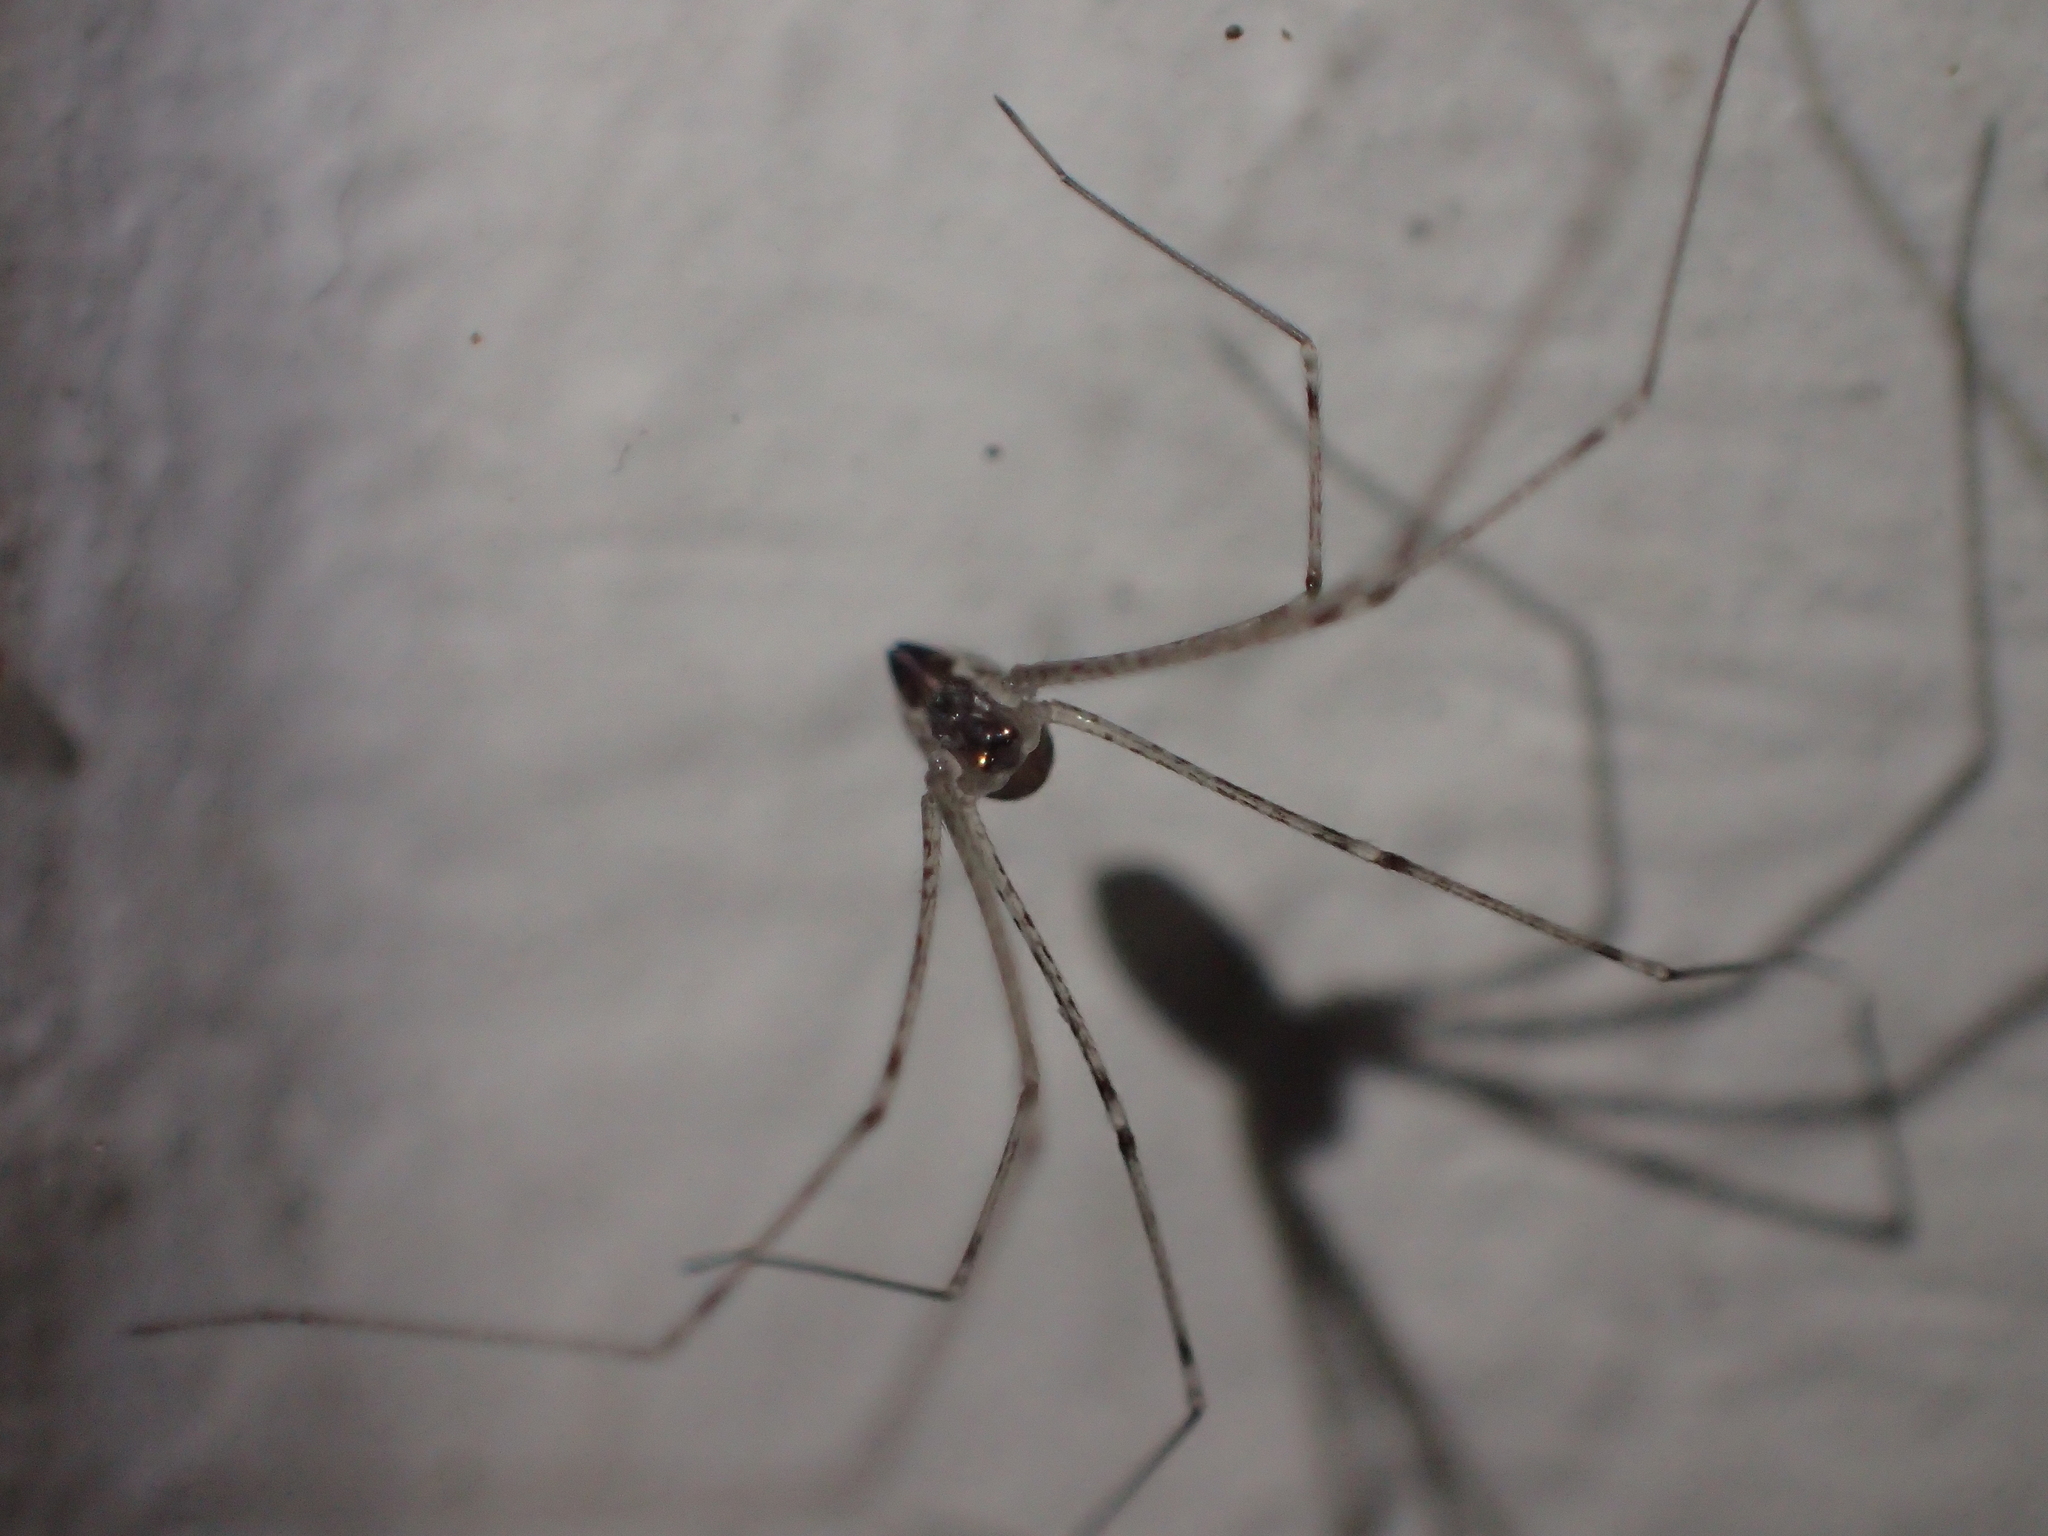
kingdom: Animalia
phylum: Arthropoda
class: Arachnida
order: Araneae
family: Pholcidae
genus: Holocnemus
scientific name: Holocnemus pluchei
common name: Marbled cellar spider
